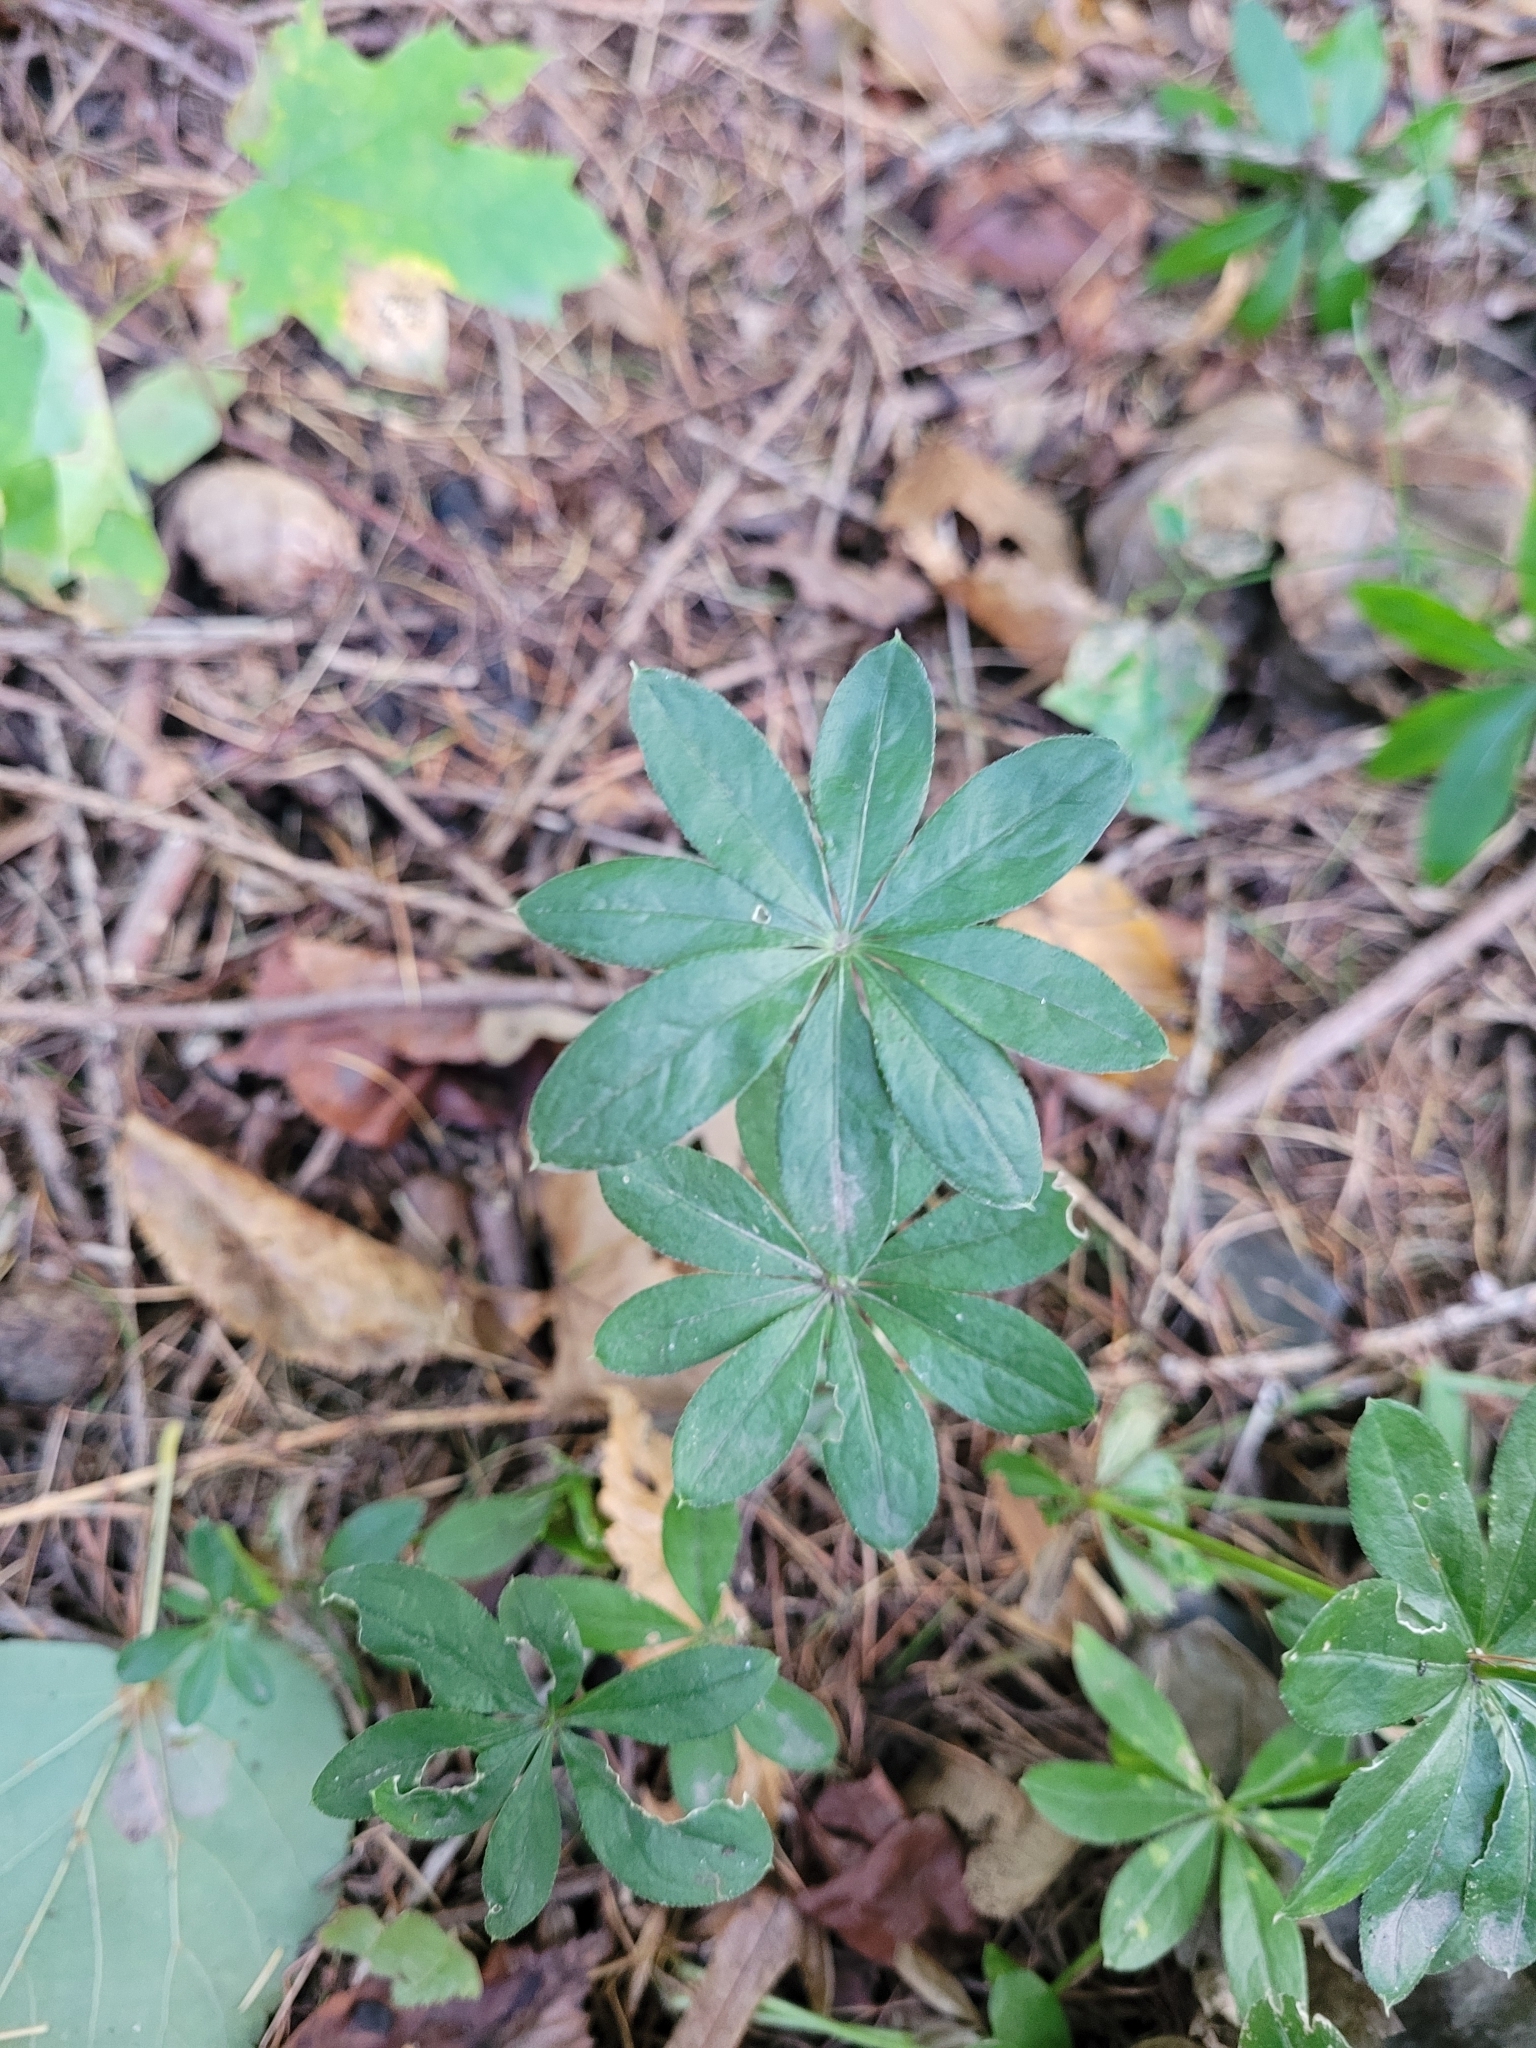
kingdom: Plantae
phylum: Tracheophyta
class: Magnoliopsida
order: Gentianales
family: Rubiaceae
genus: Galium
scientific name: Galium odoratum
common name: Sweet woodruff
